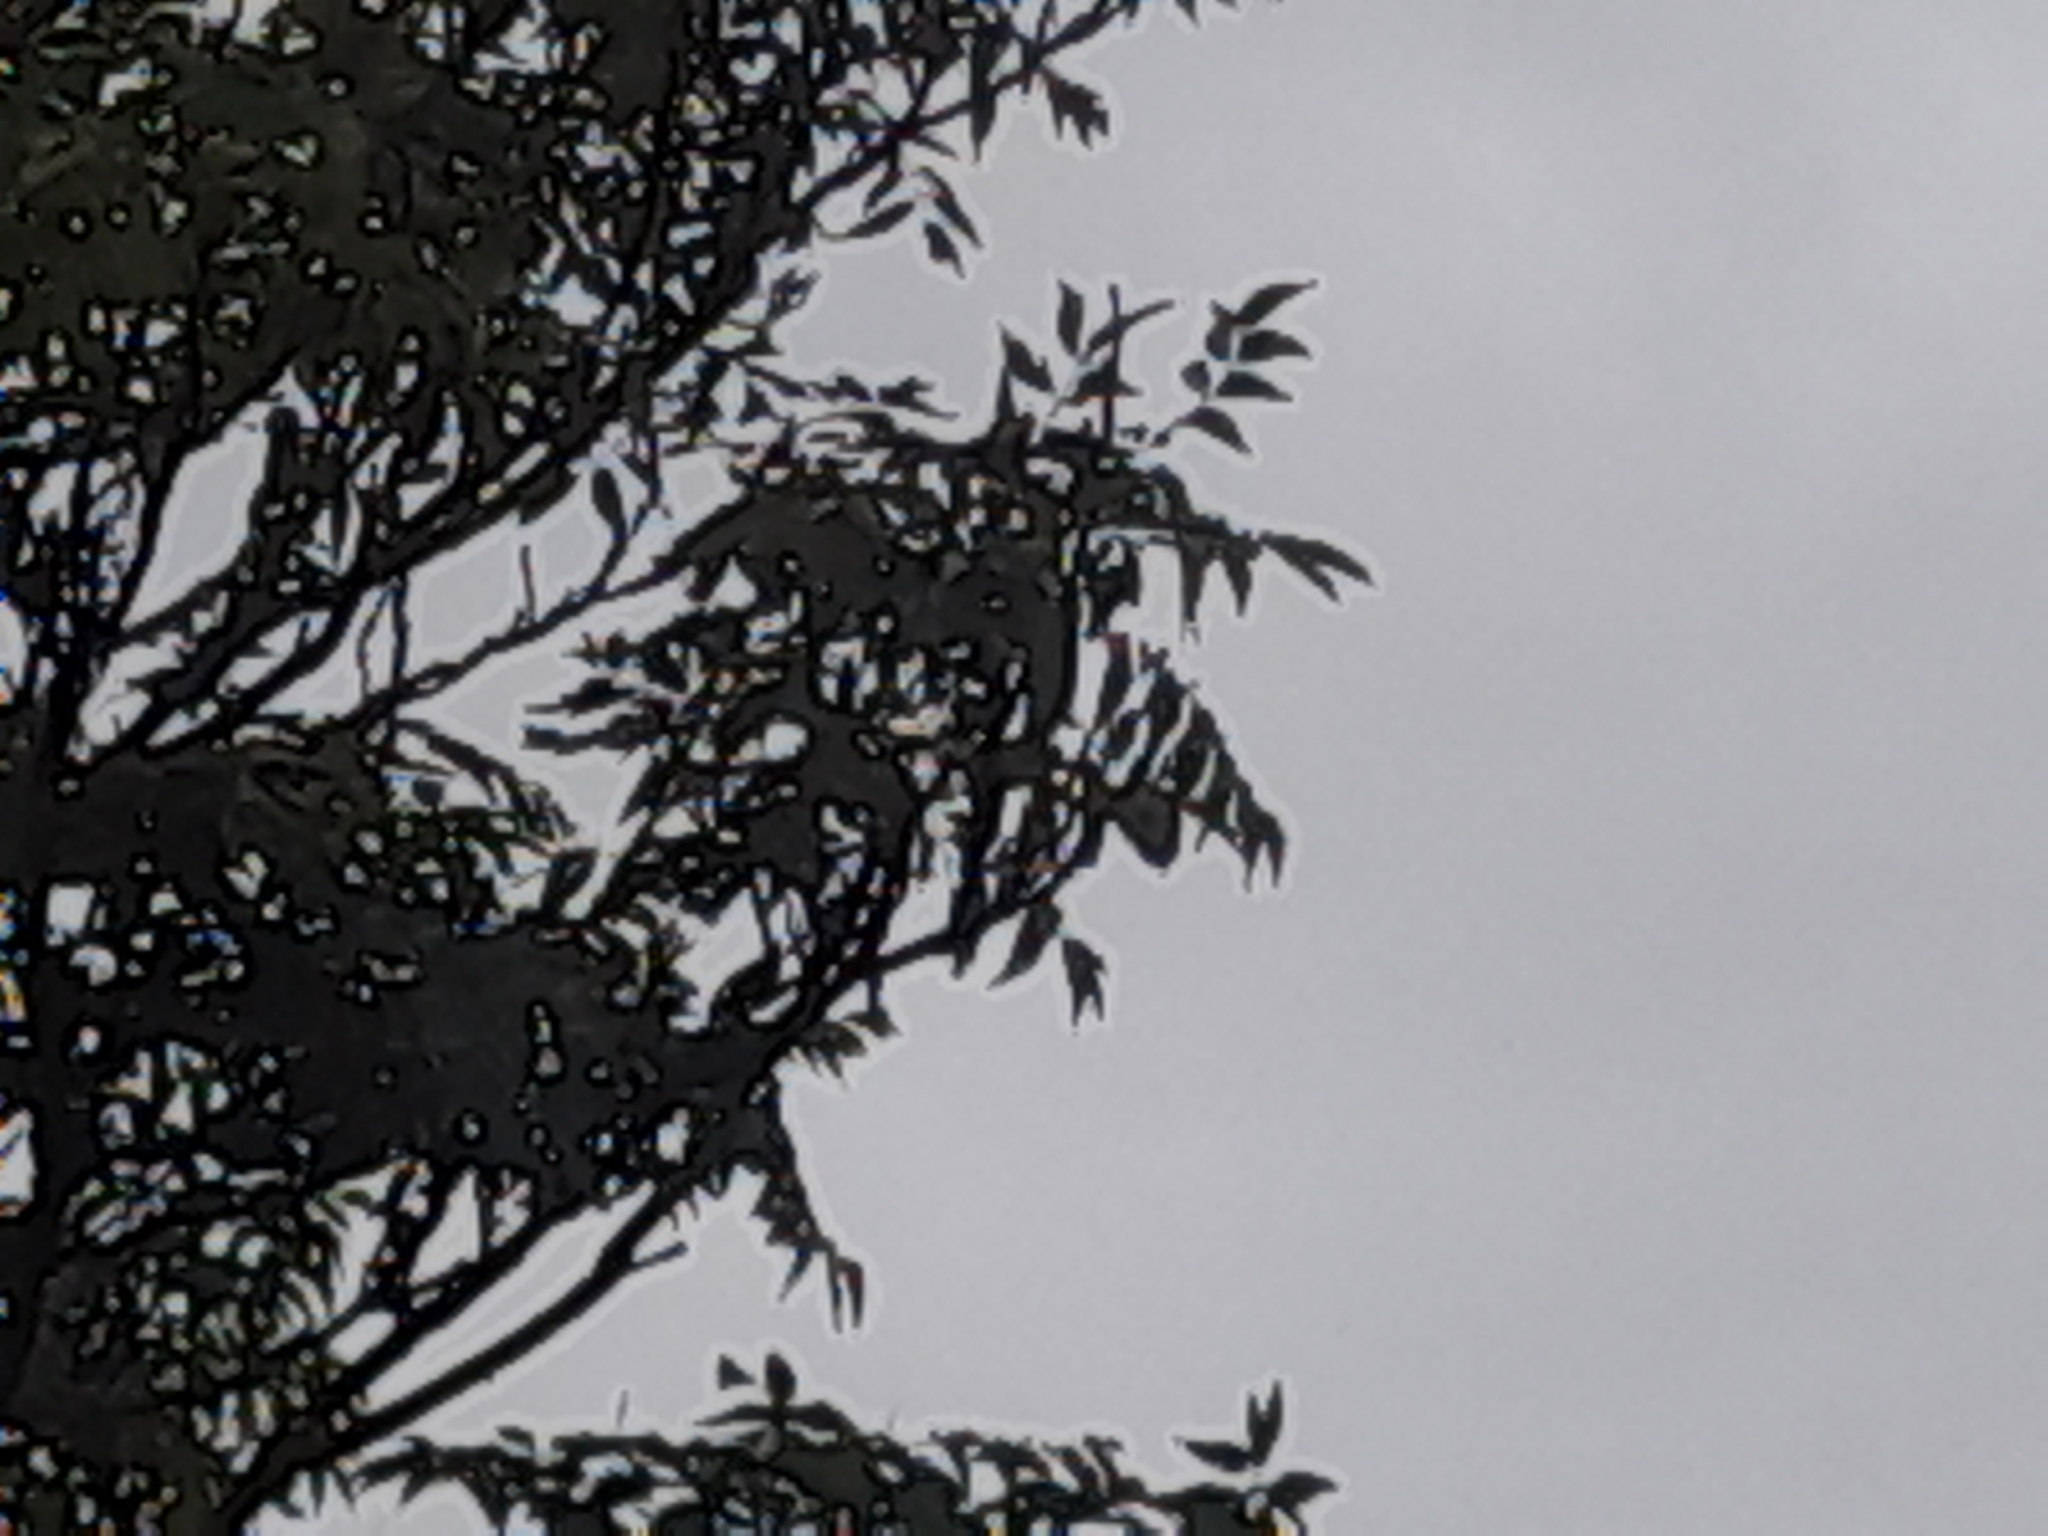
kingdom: Plantae
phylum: Tracheophyta
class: Magnoliopsida
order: Sapindales
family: Simaroubaceae
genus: Ailanthus
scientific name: Ailanthus altissima
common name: Tree-of-heaven
